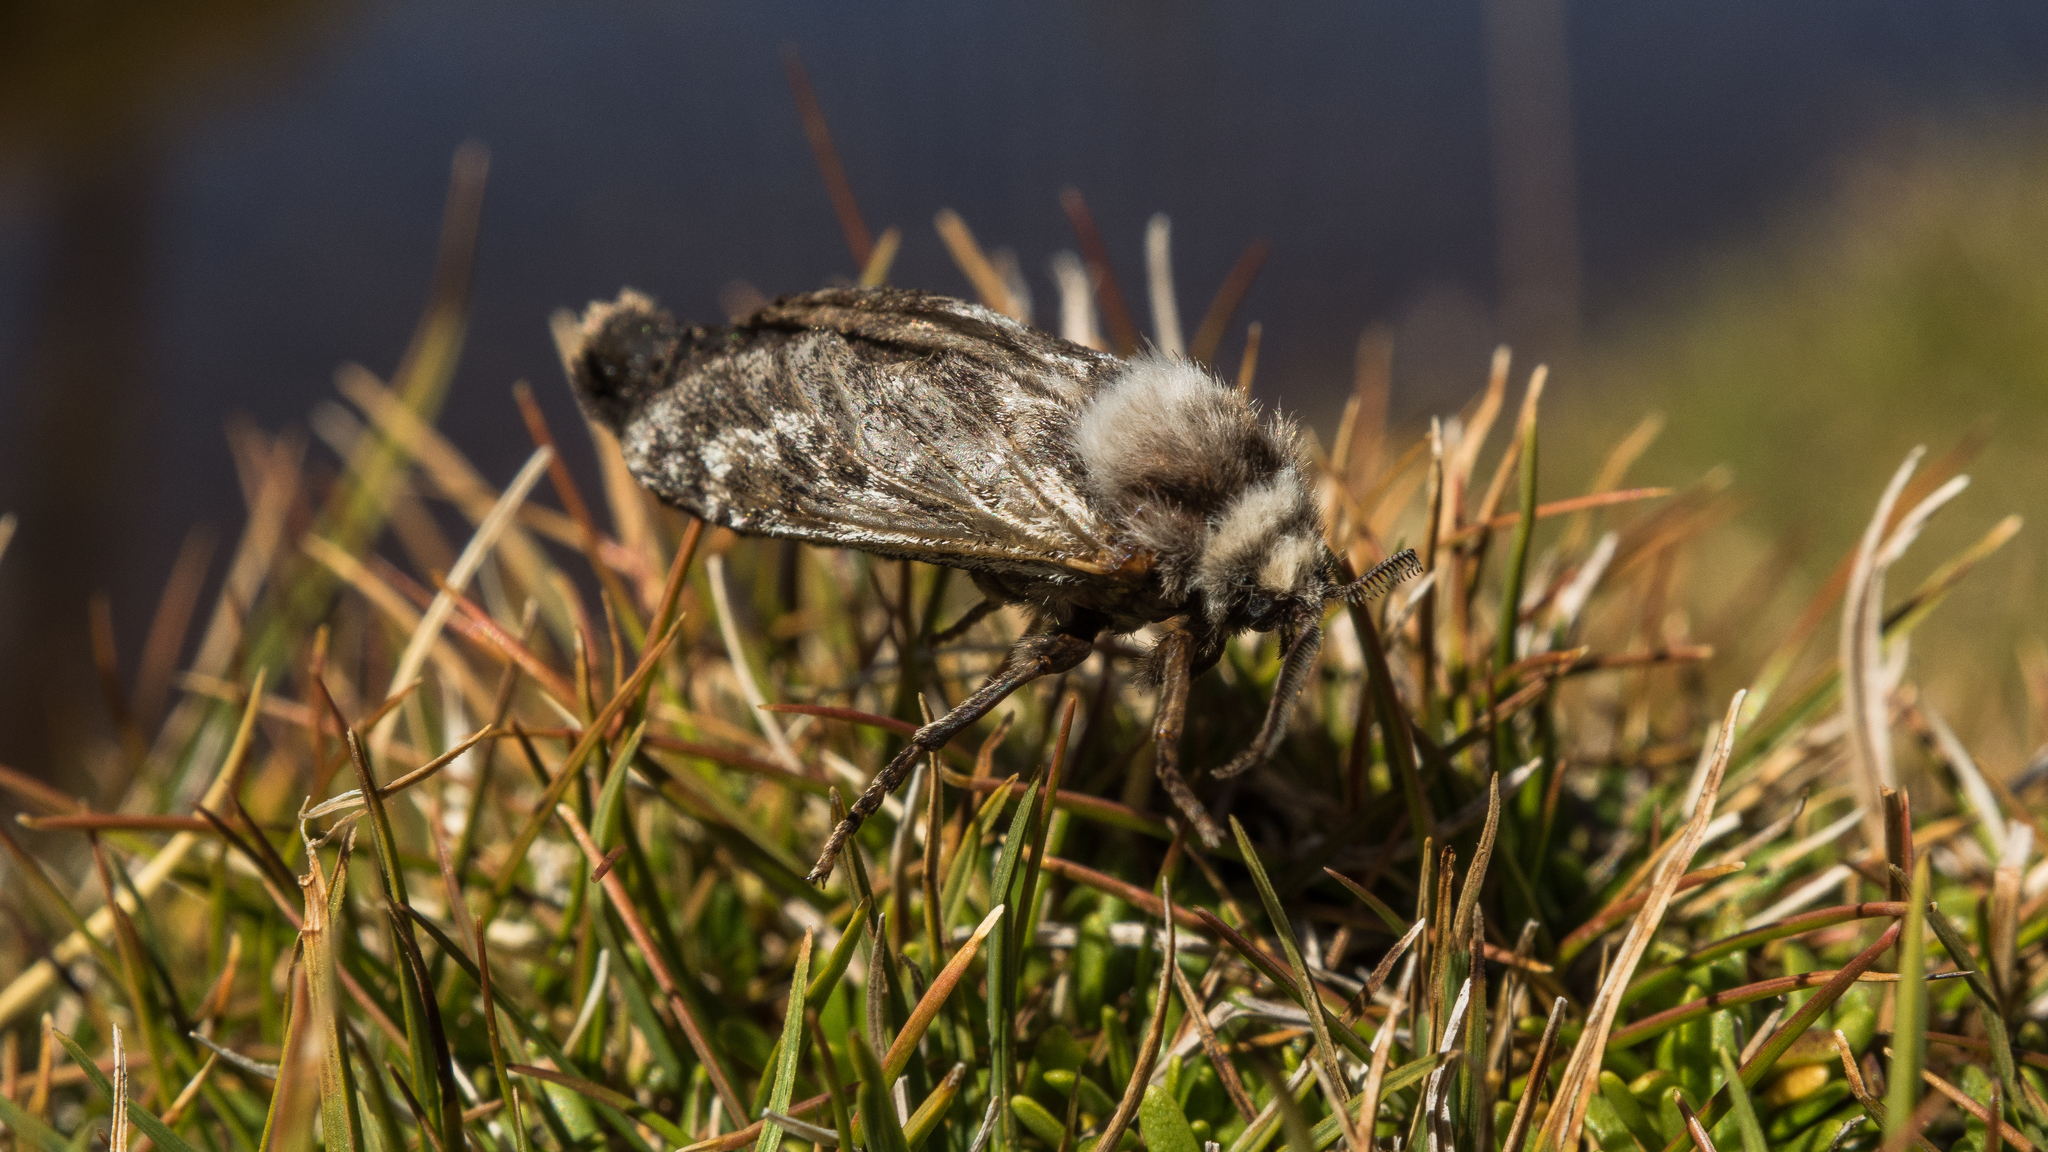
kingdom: Animalia
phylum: Arthropoda
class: Insecta
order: Lepidoptera
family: Hepialidae
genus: Aoraia
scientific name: Aoraia senex
